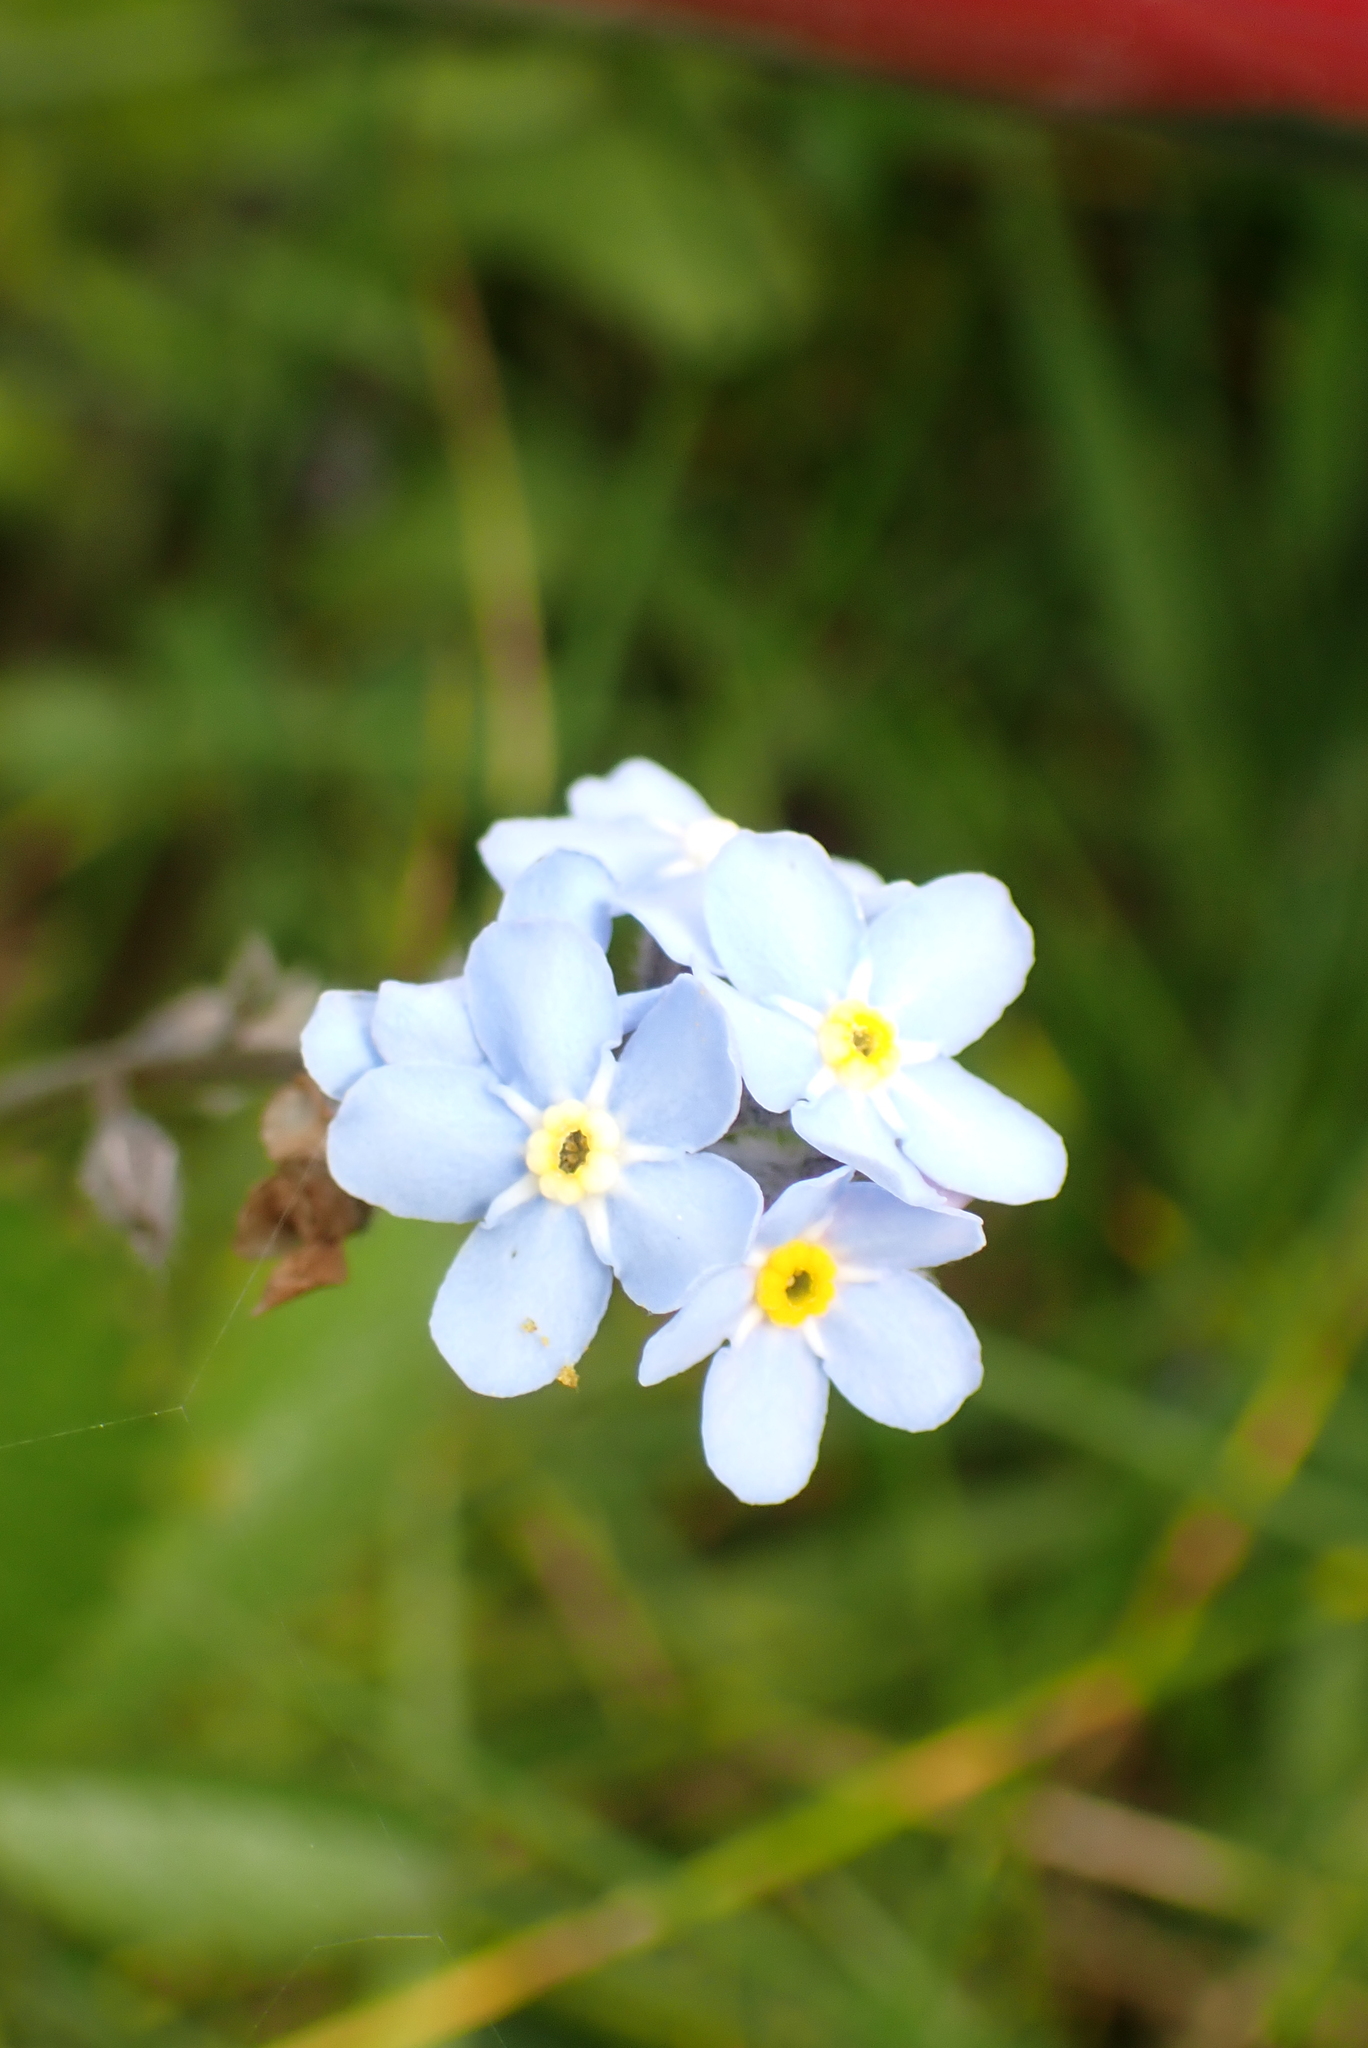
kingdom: Plantae
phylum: Tracheophyta
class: Magnoliopsida
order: Boraginales
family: Boraginaceae
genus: Myosotis
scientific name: Myosotis sylvatica
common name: Wood forget-me-not
